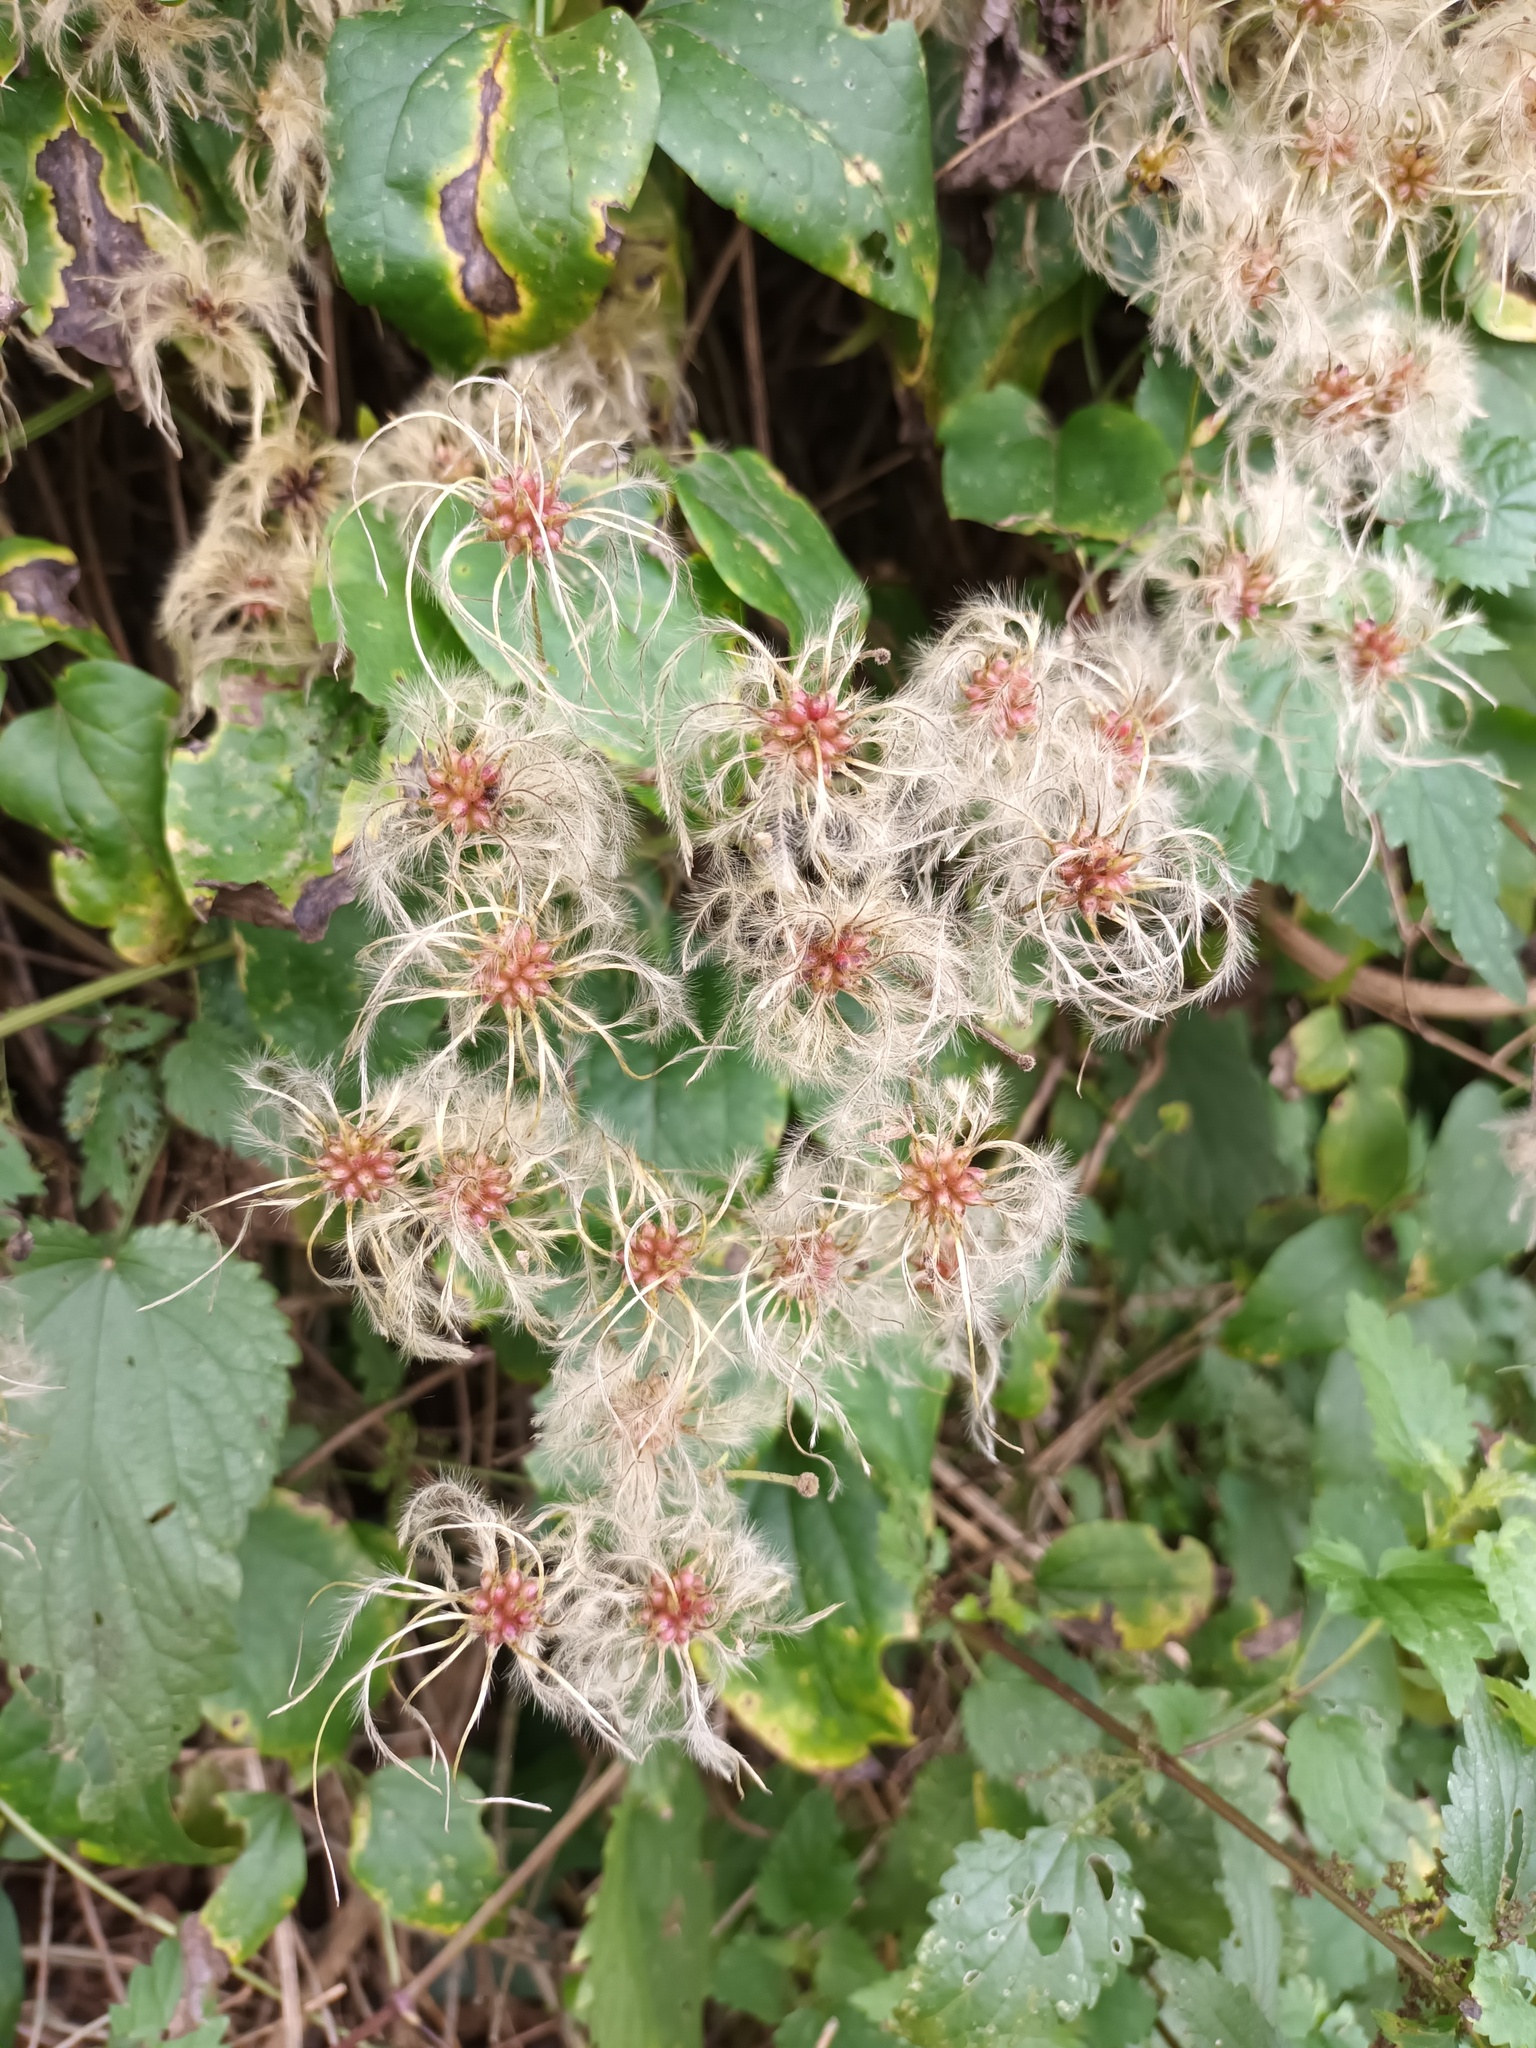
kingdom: Plantae
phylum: Tracheophyta
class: Magnoliopsida
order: Ranunculales
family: Ranunculaceae
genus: Clematis
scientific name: Clematis vitalba
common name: Evergreen clematis
